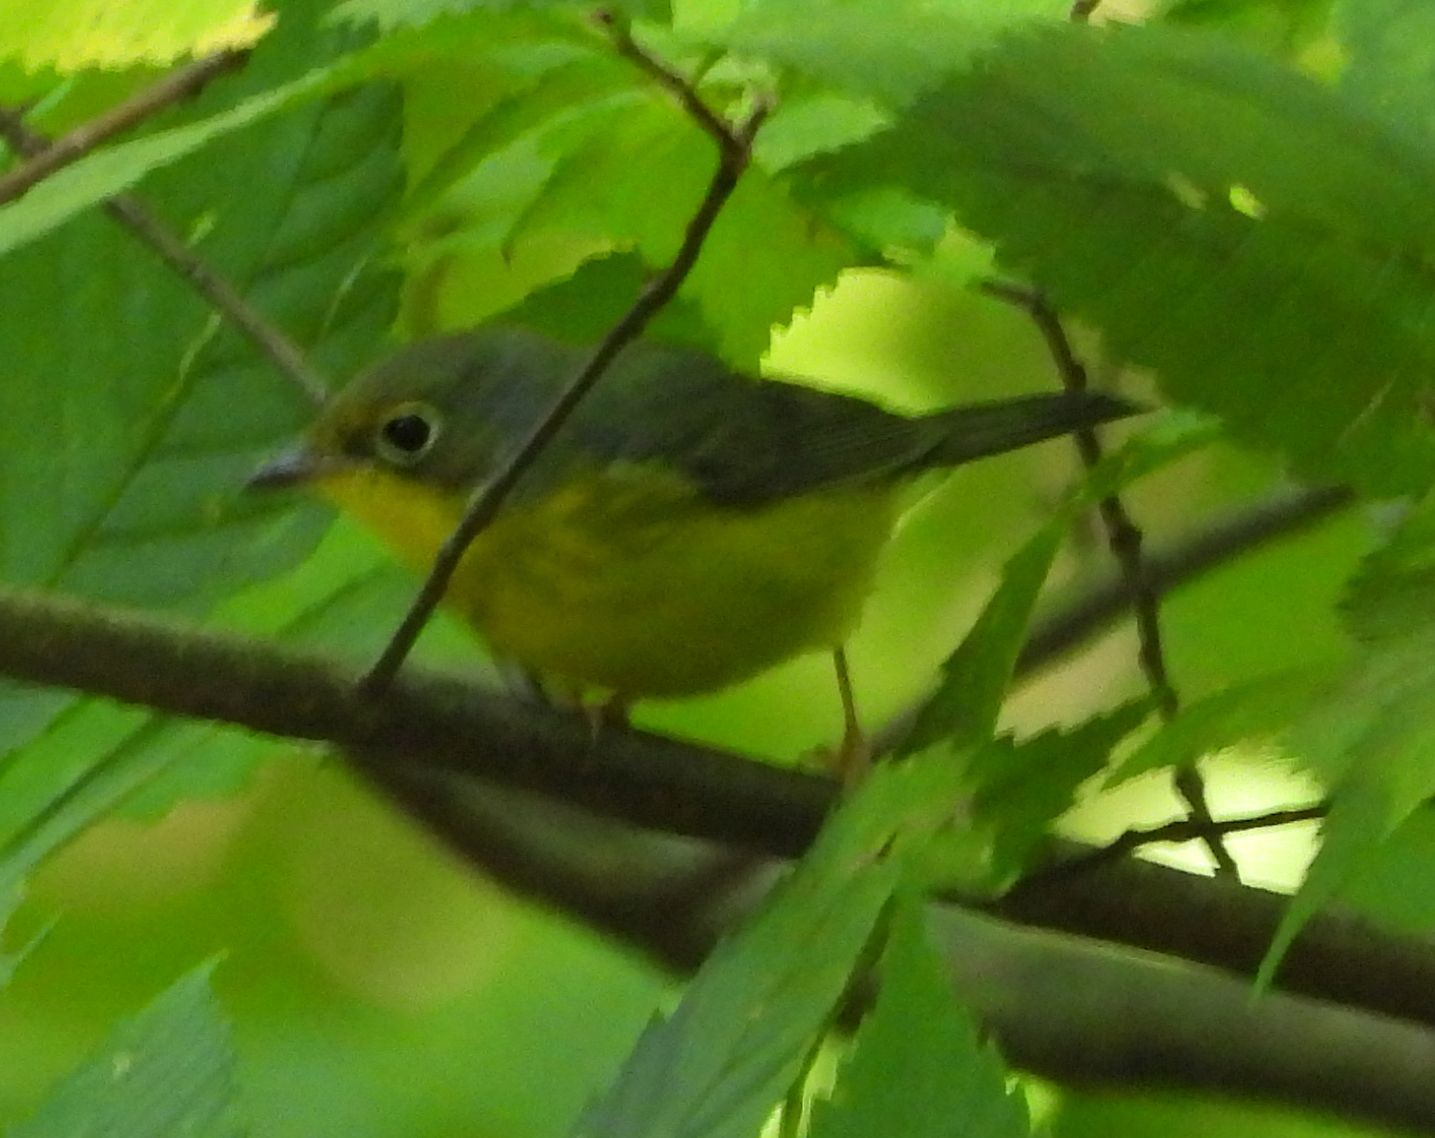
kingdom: Animalia
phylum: Chordata
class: Aves
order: Passeriformes
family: Parulidae
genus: Cardellina
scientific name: Cardellina canadensis
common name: Canada warbler
